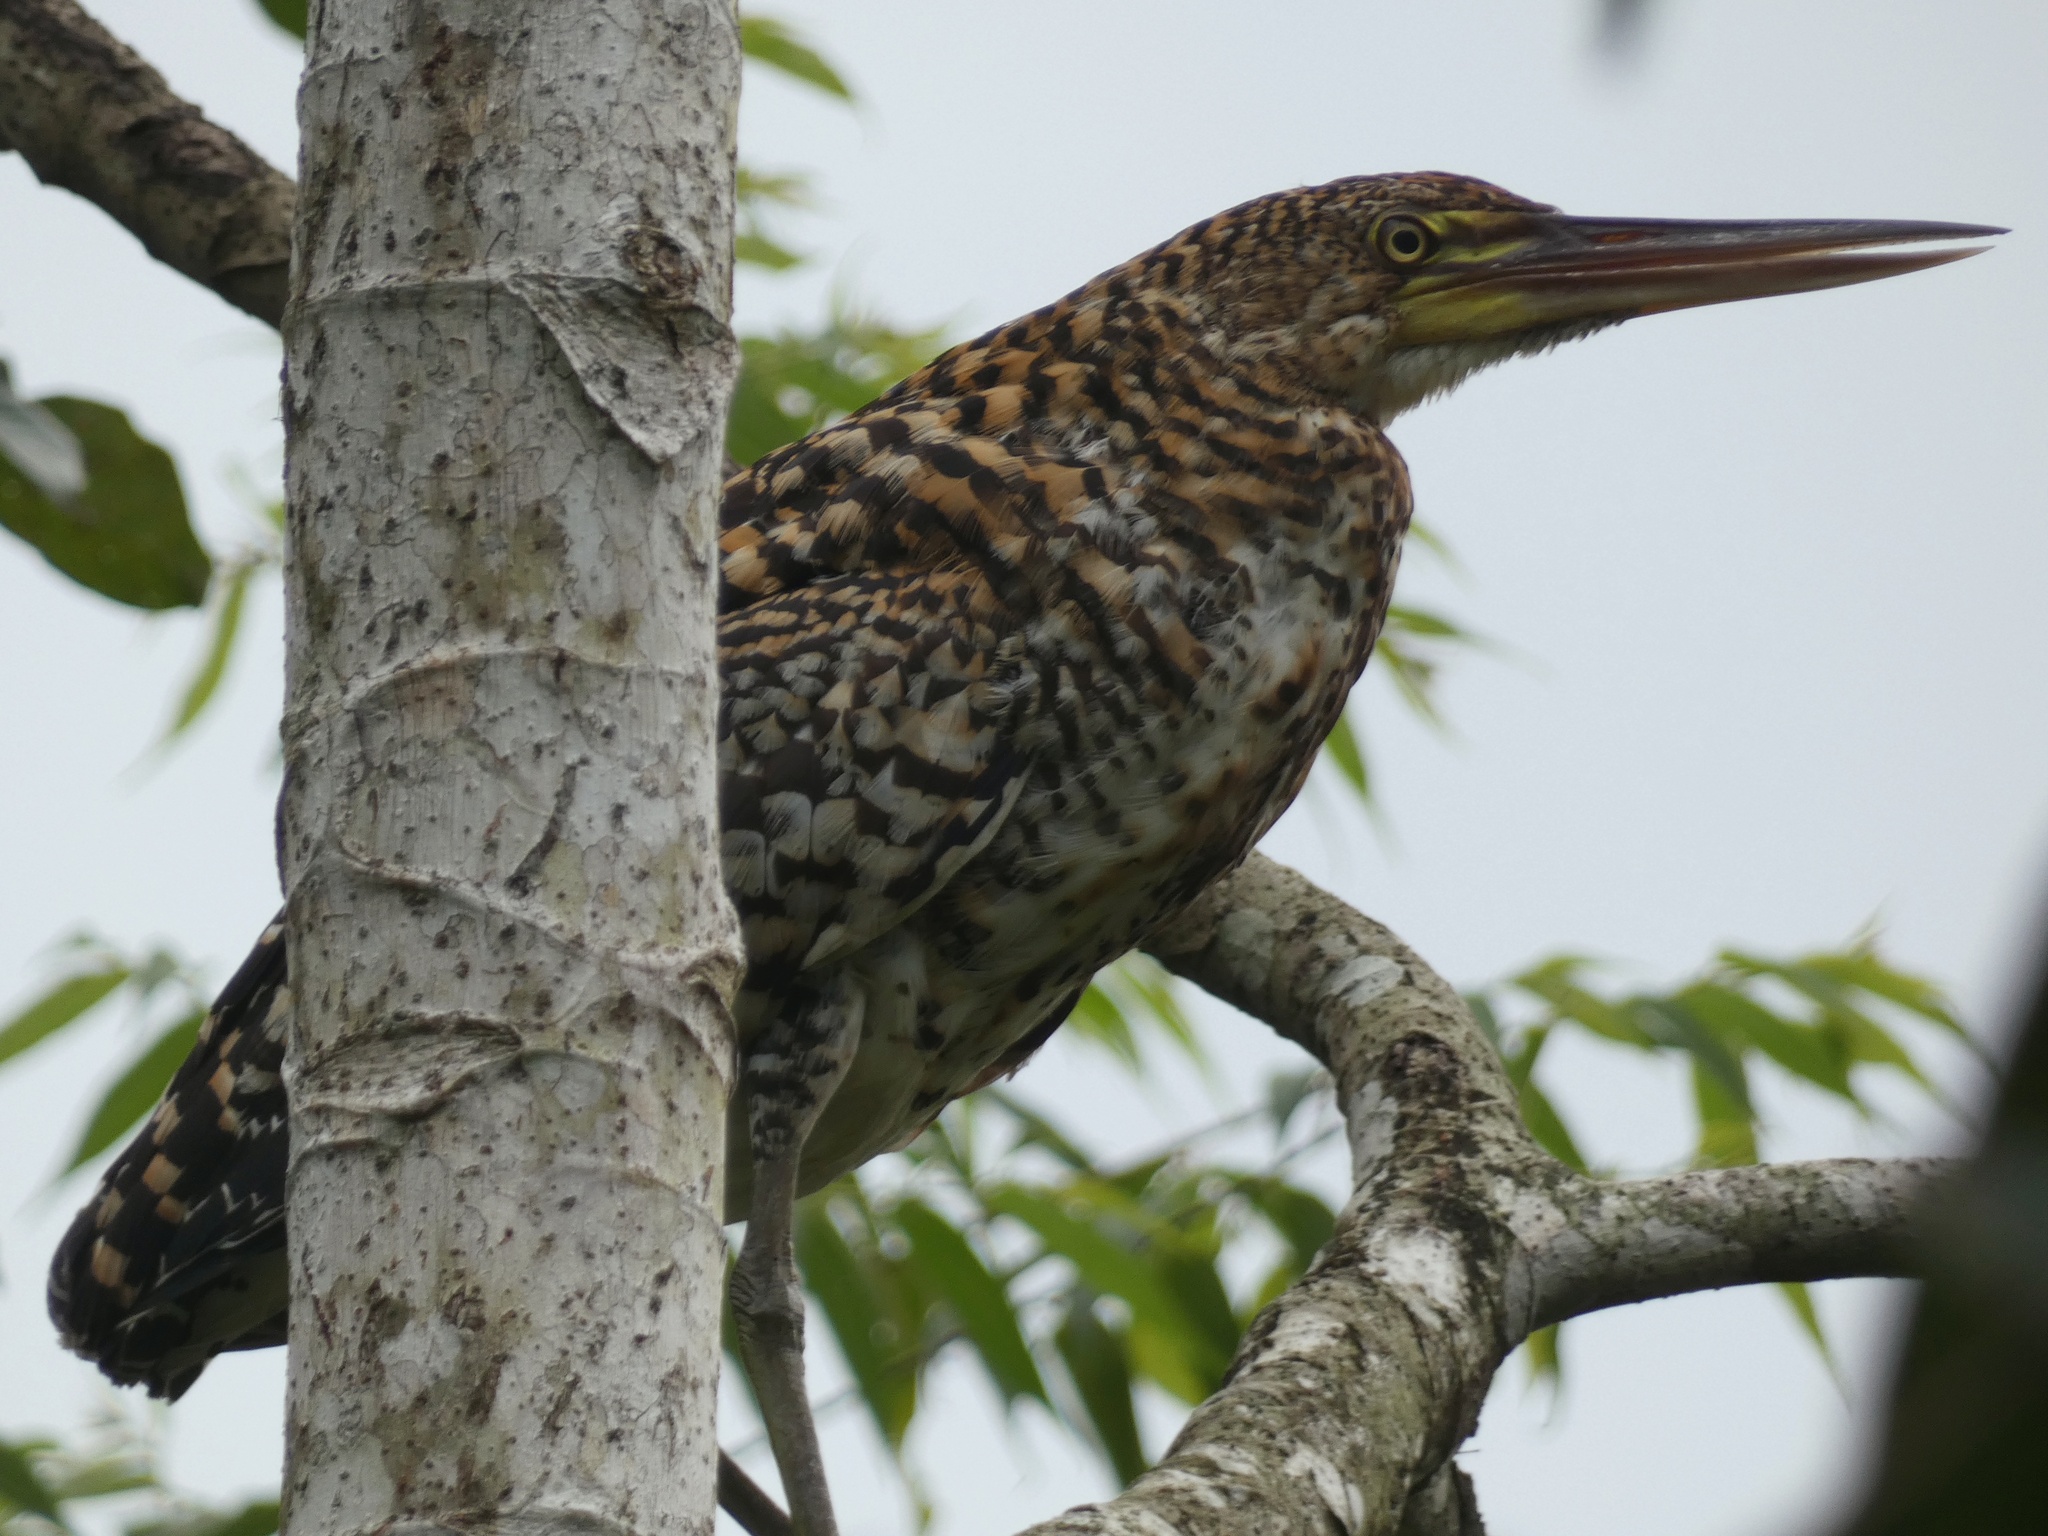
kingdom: Animalia
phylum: Chordata
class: Aves
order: Pelecaniformes
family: Ardeidae
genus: Tigrisoma
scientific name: Tigrisoma lineatum
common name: Rufescent tiger-heron
